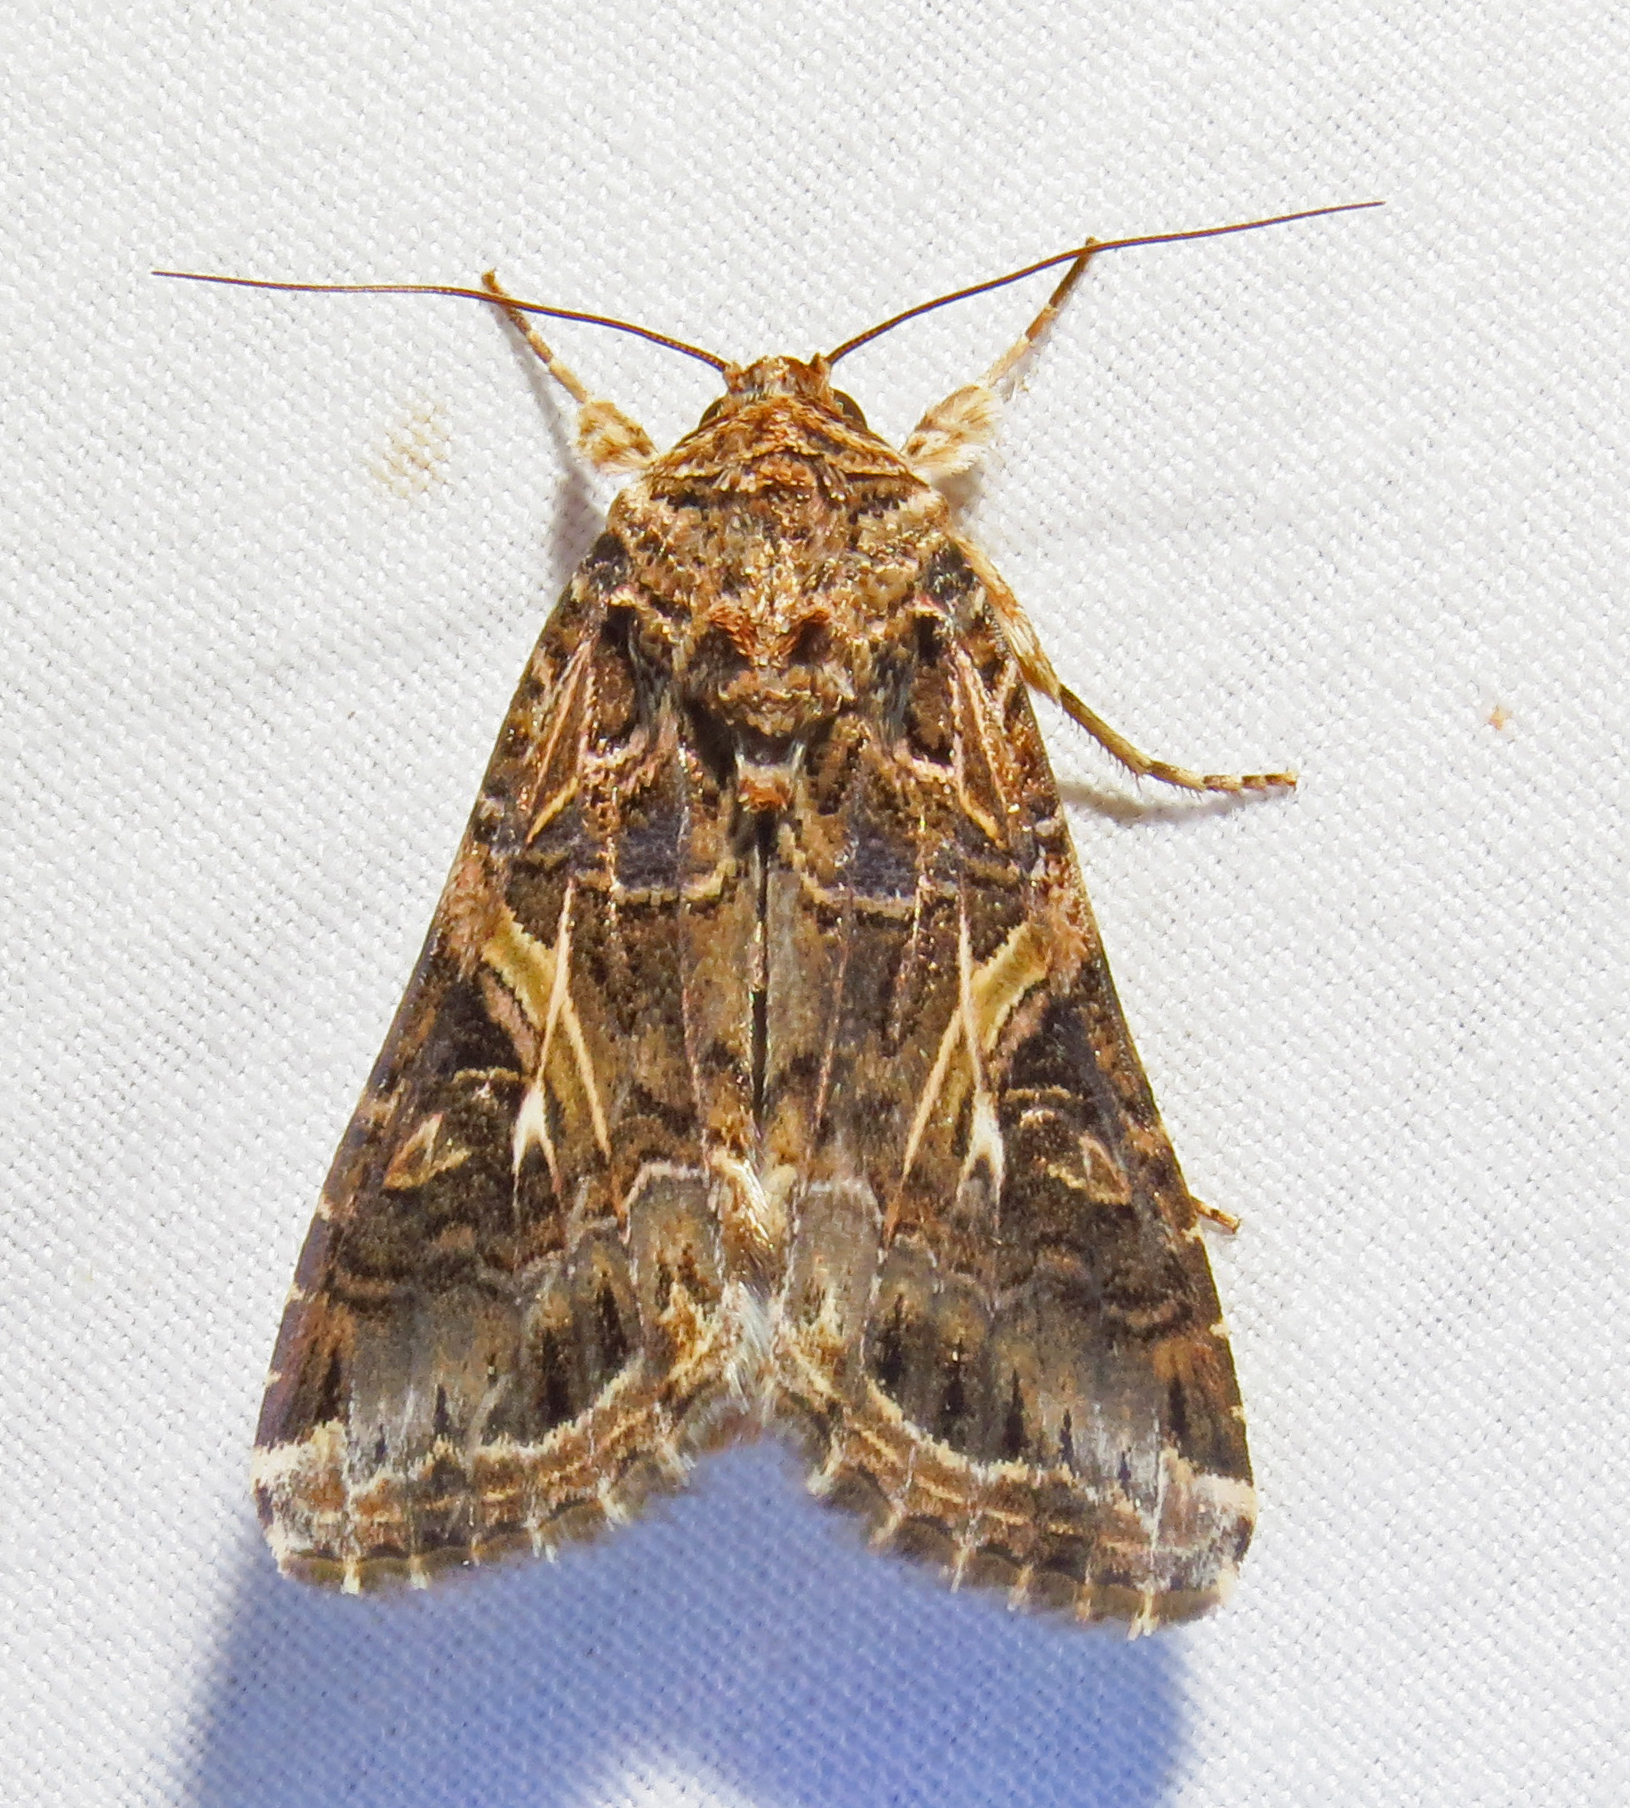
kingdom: Animalia
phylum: Arthropoda
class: Insecta
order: Lepidoptera
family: Noctuidae
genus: Spodoptera
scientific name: Spodoptera ornithogalli
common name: Yellow-striped armyworm
